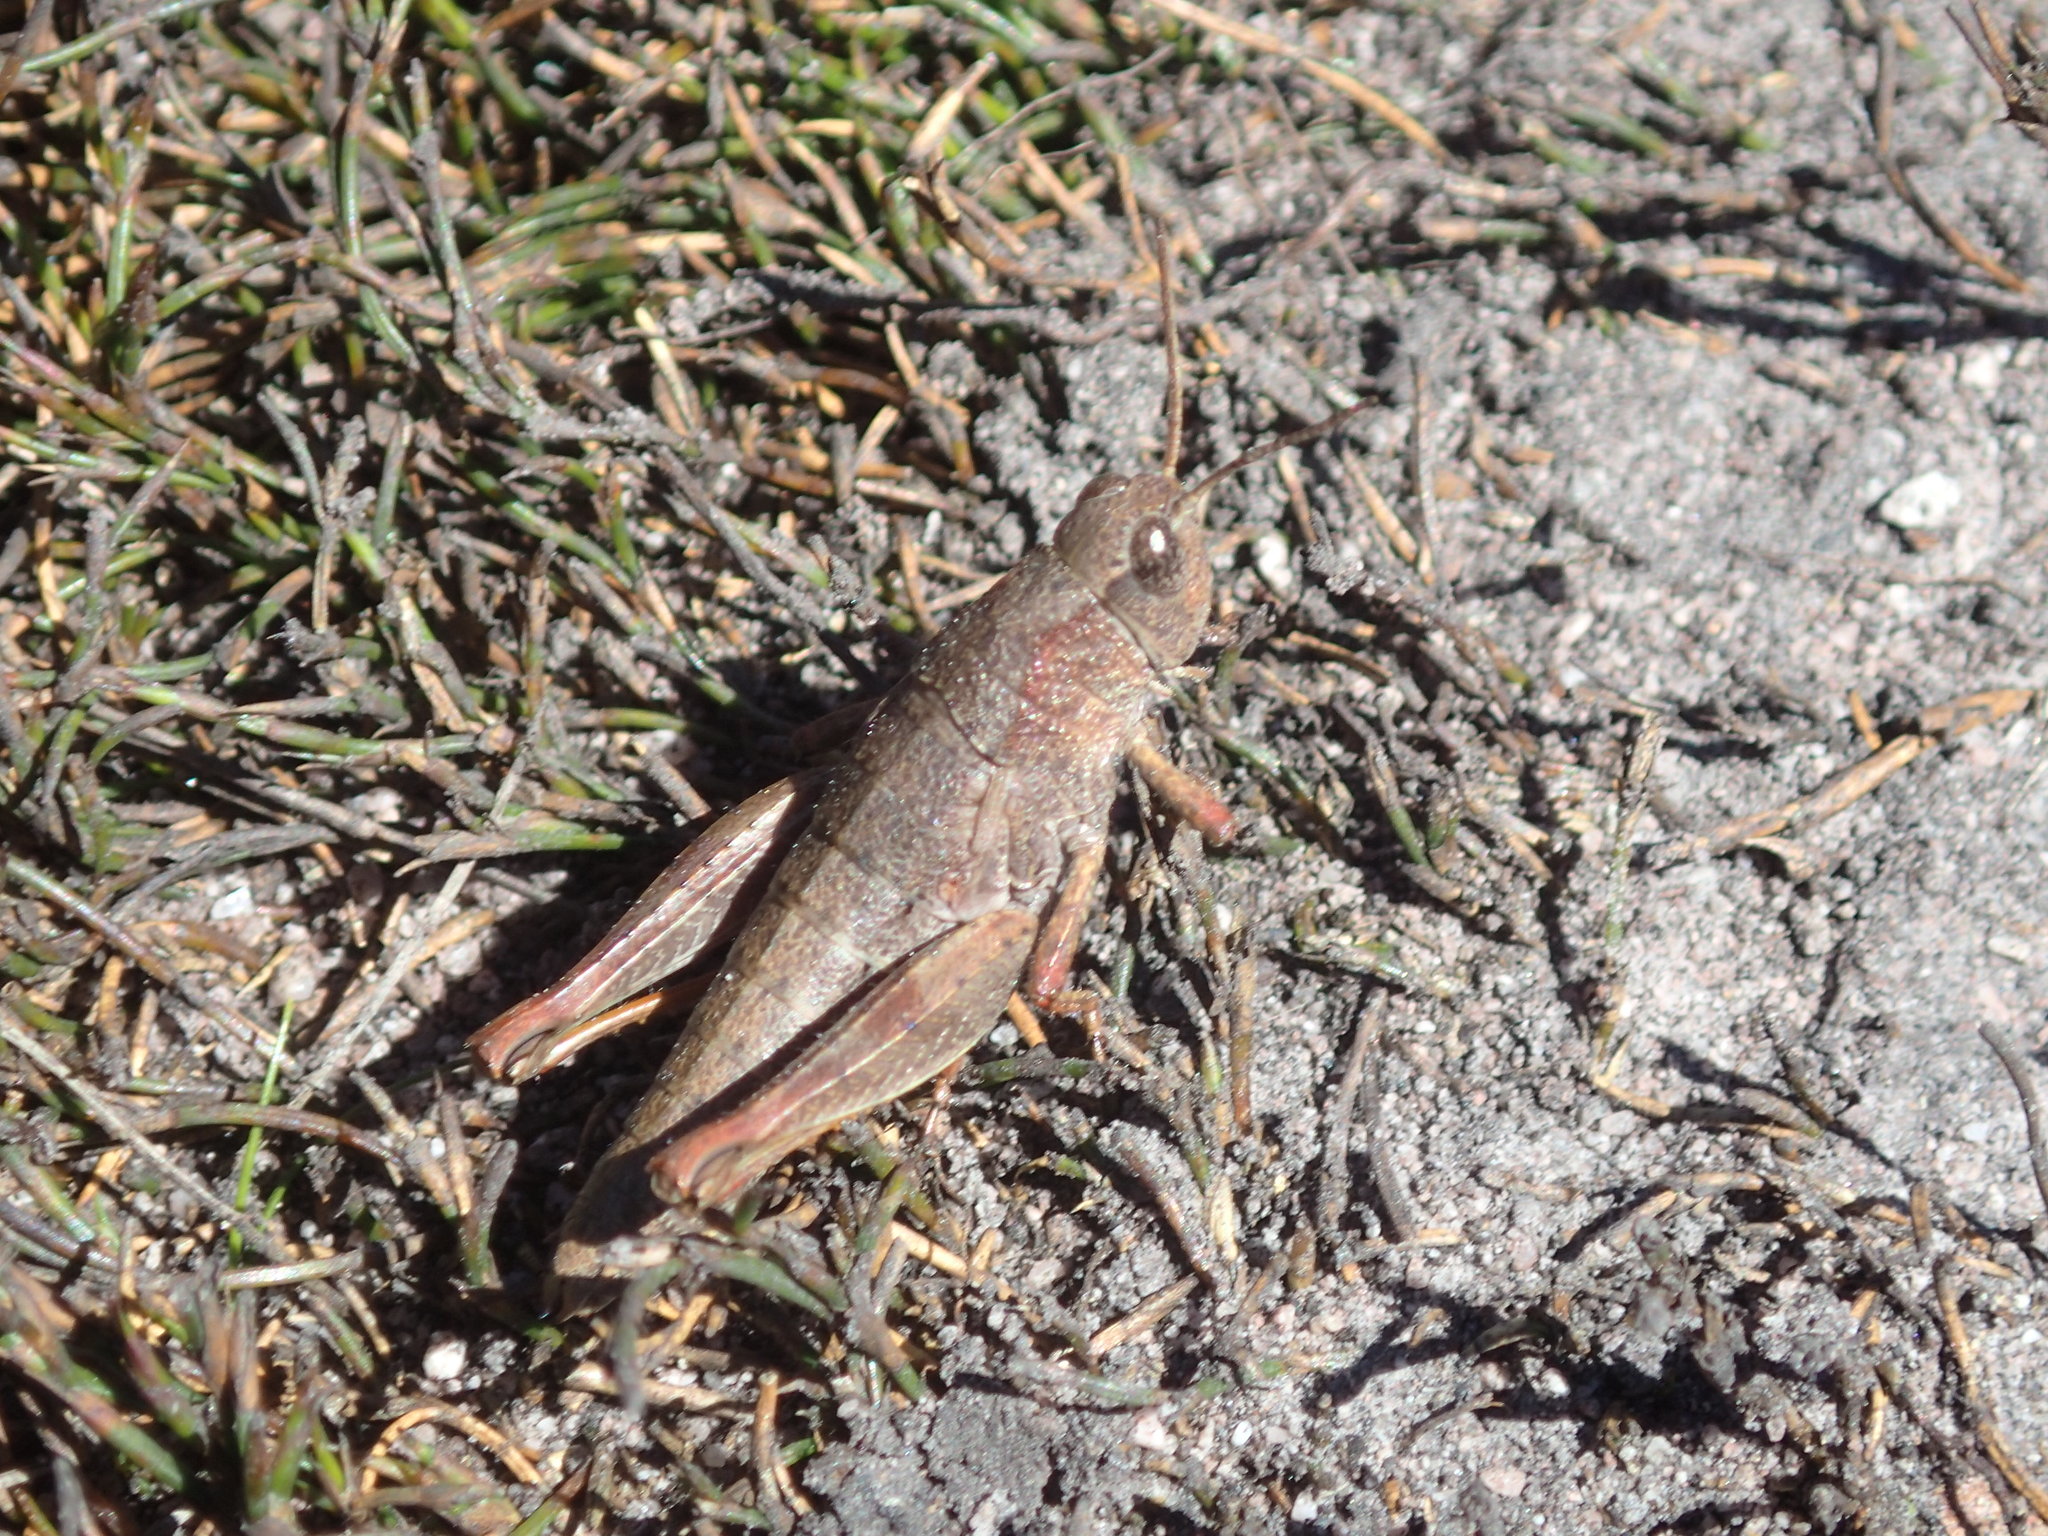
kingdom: Animalia
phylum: Arthropoda
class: Insecta
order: Orthoptera
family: Acrididae
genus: Tasmaniacris
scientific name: Tasmaniacris tasmaniensis
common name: Tasmanian grasshopper
